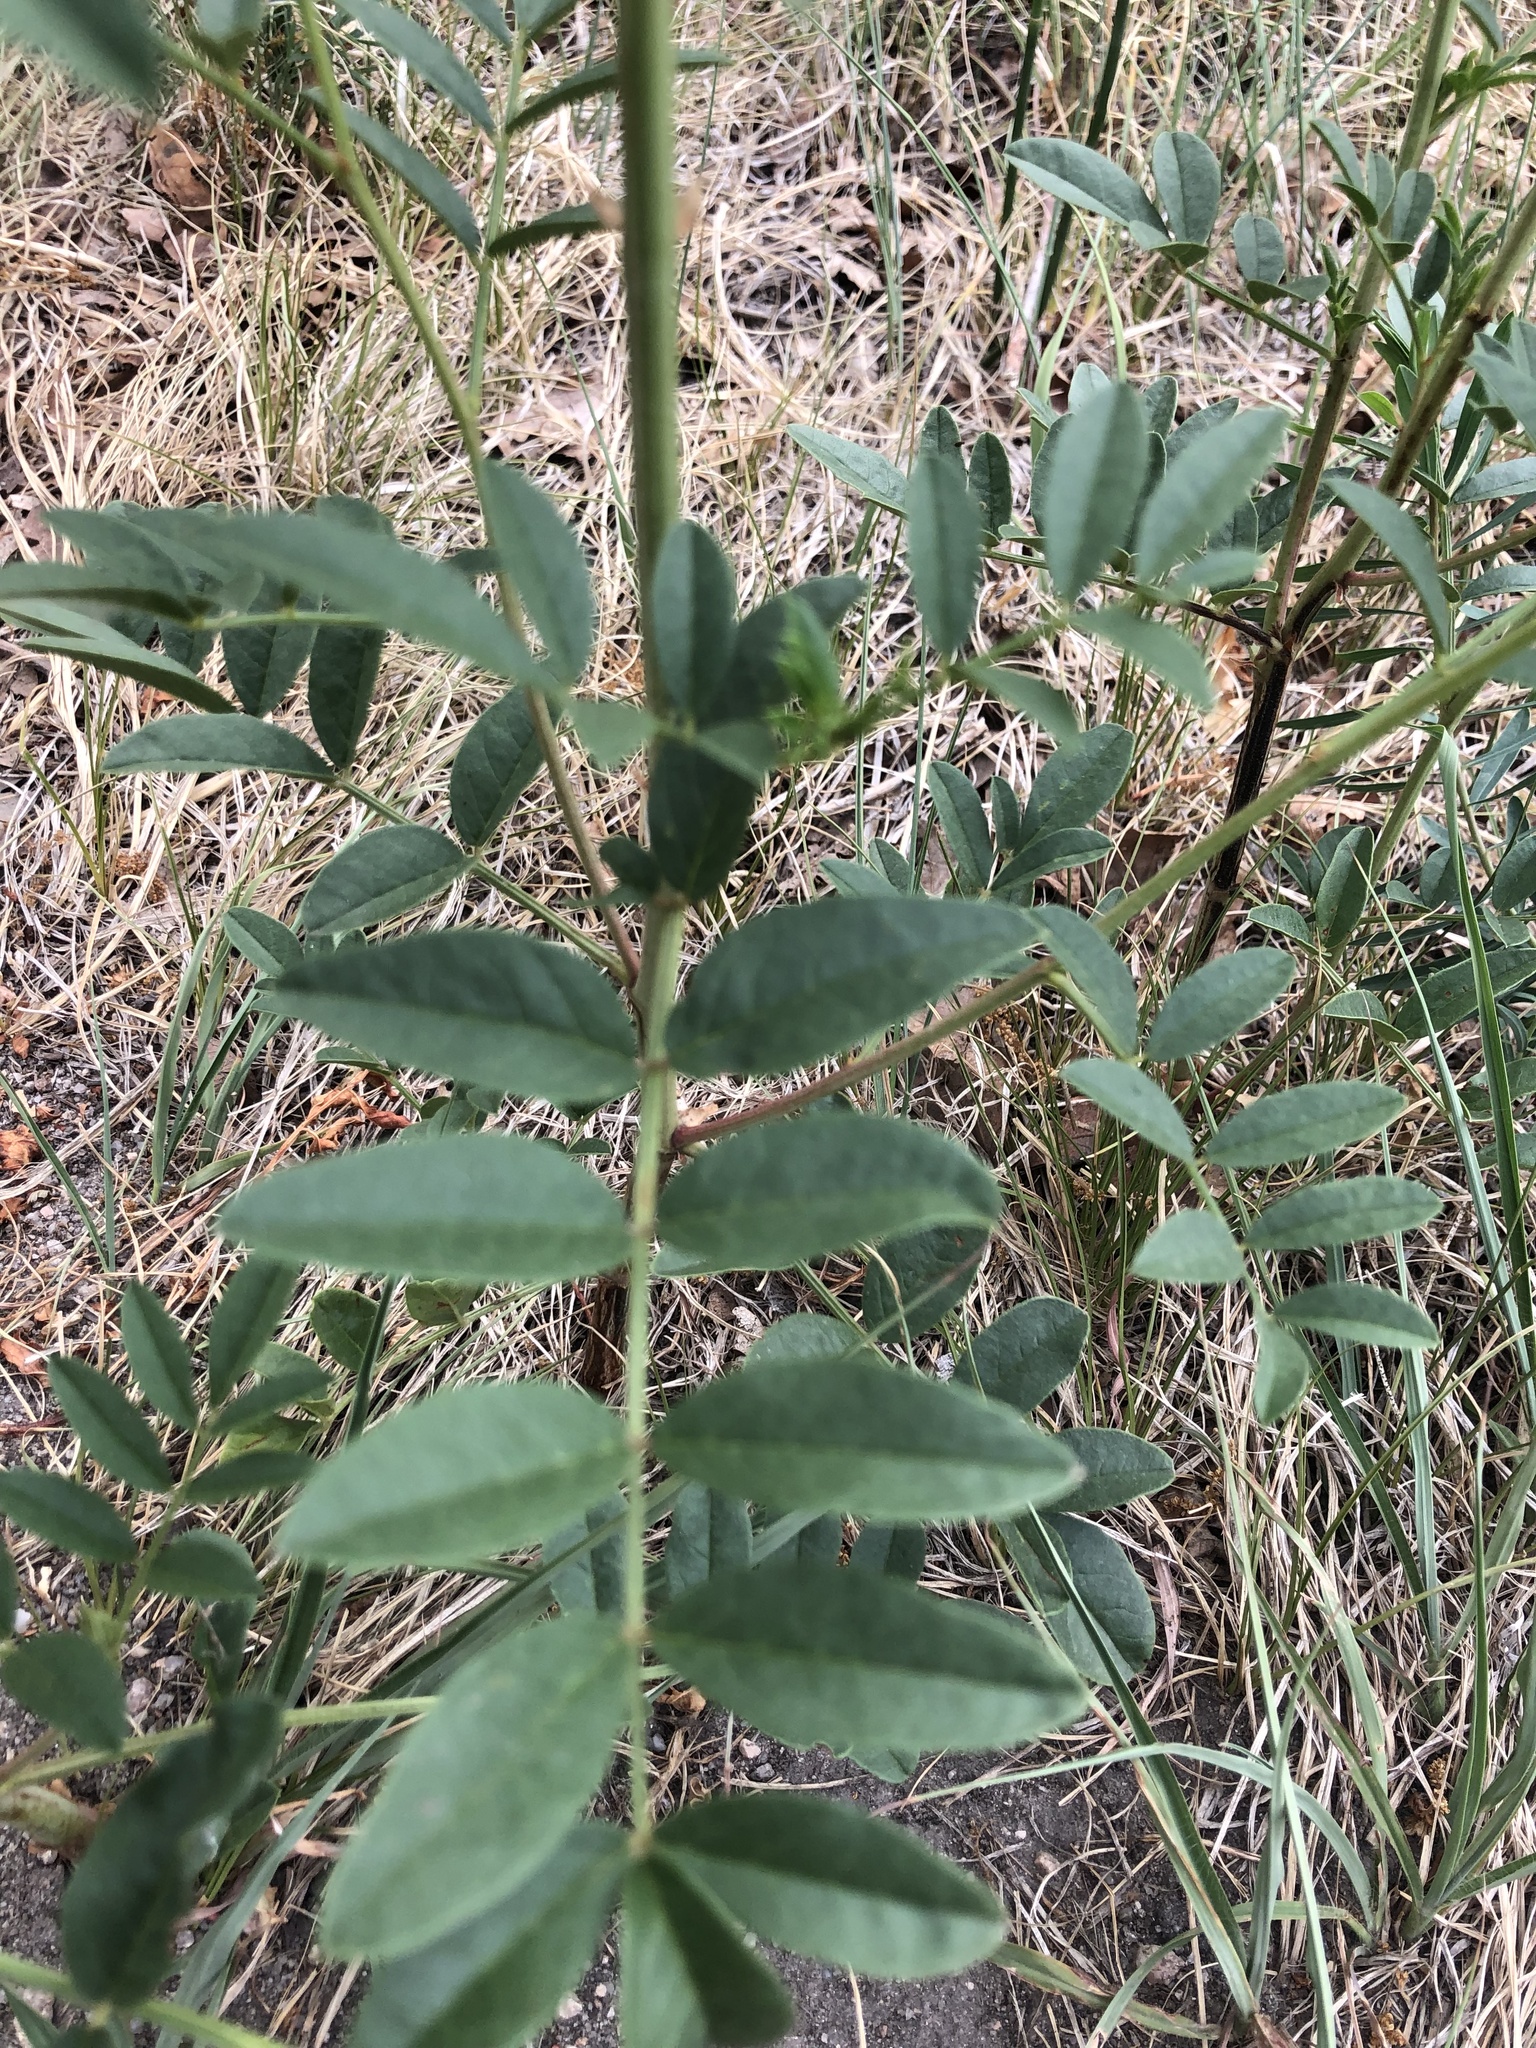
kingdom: Plantae
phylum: Tracheophyta
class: Magnoliopsida
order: Fabales
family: Fabaceae
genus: Glycyrrhiza
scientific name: Glycyrrhiza lepidota
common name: American liquorice
